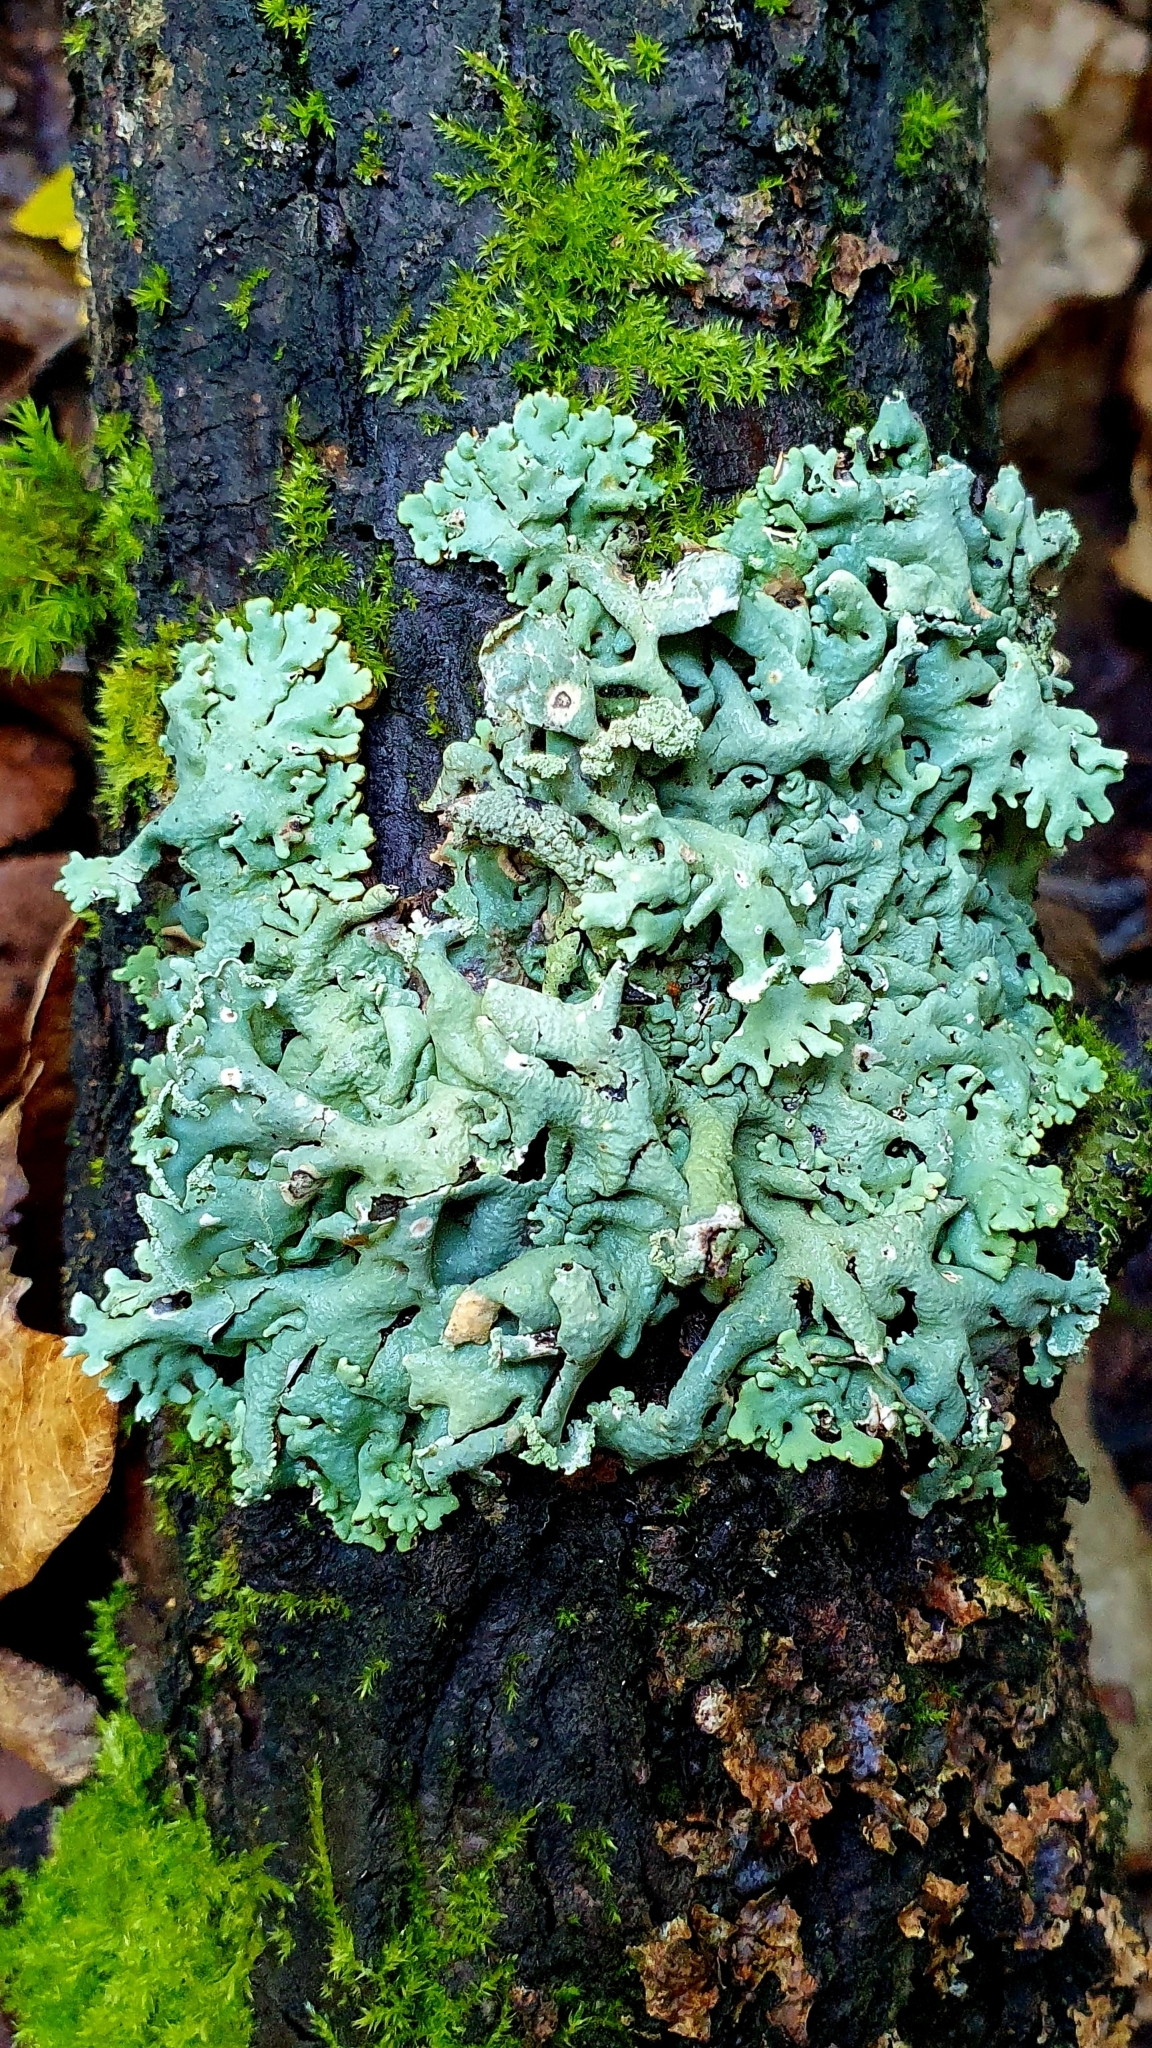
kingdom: Fungi
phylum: Ascomycota
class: Lecanoromycetes
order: Lecanorales
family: Parmeliaceae
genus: Hypogymnia
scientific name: Hypogymnia physodes
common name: Dark crottle
